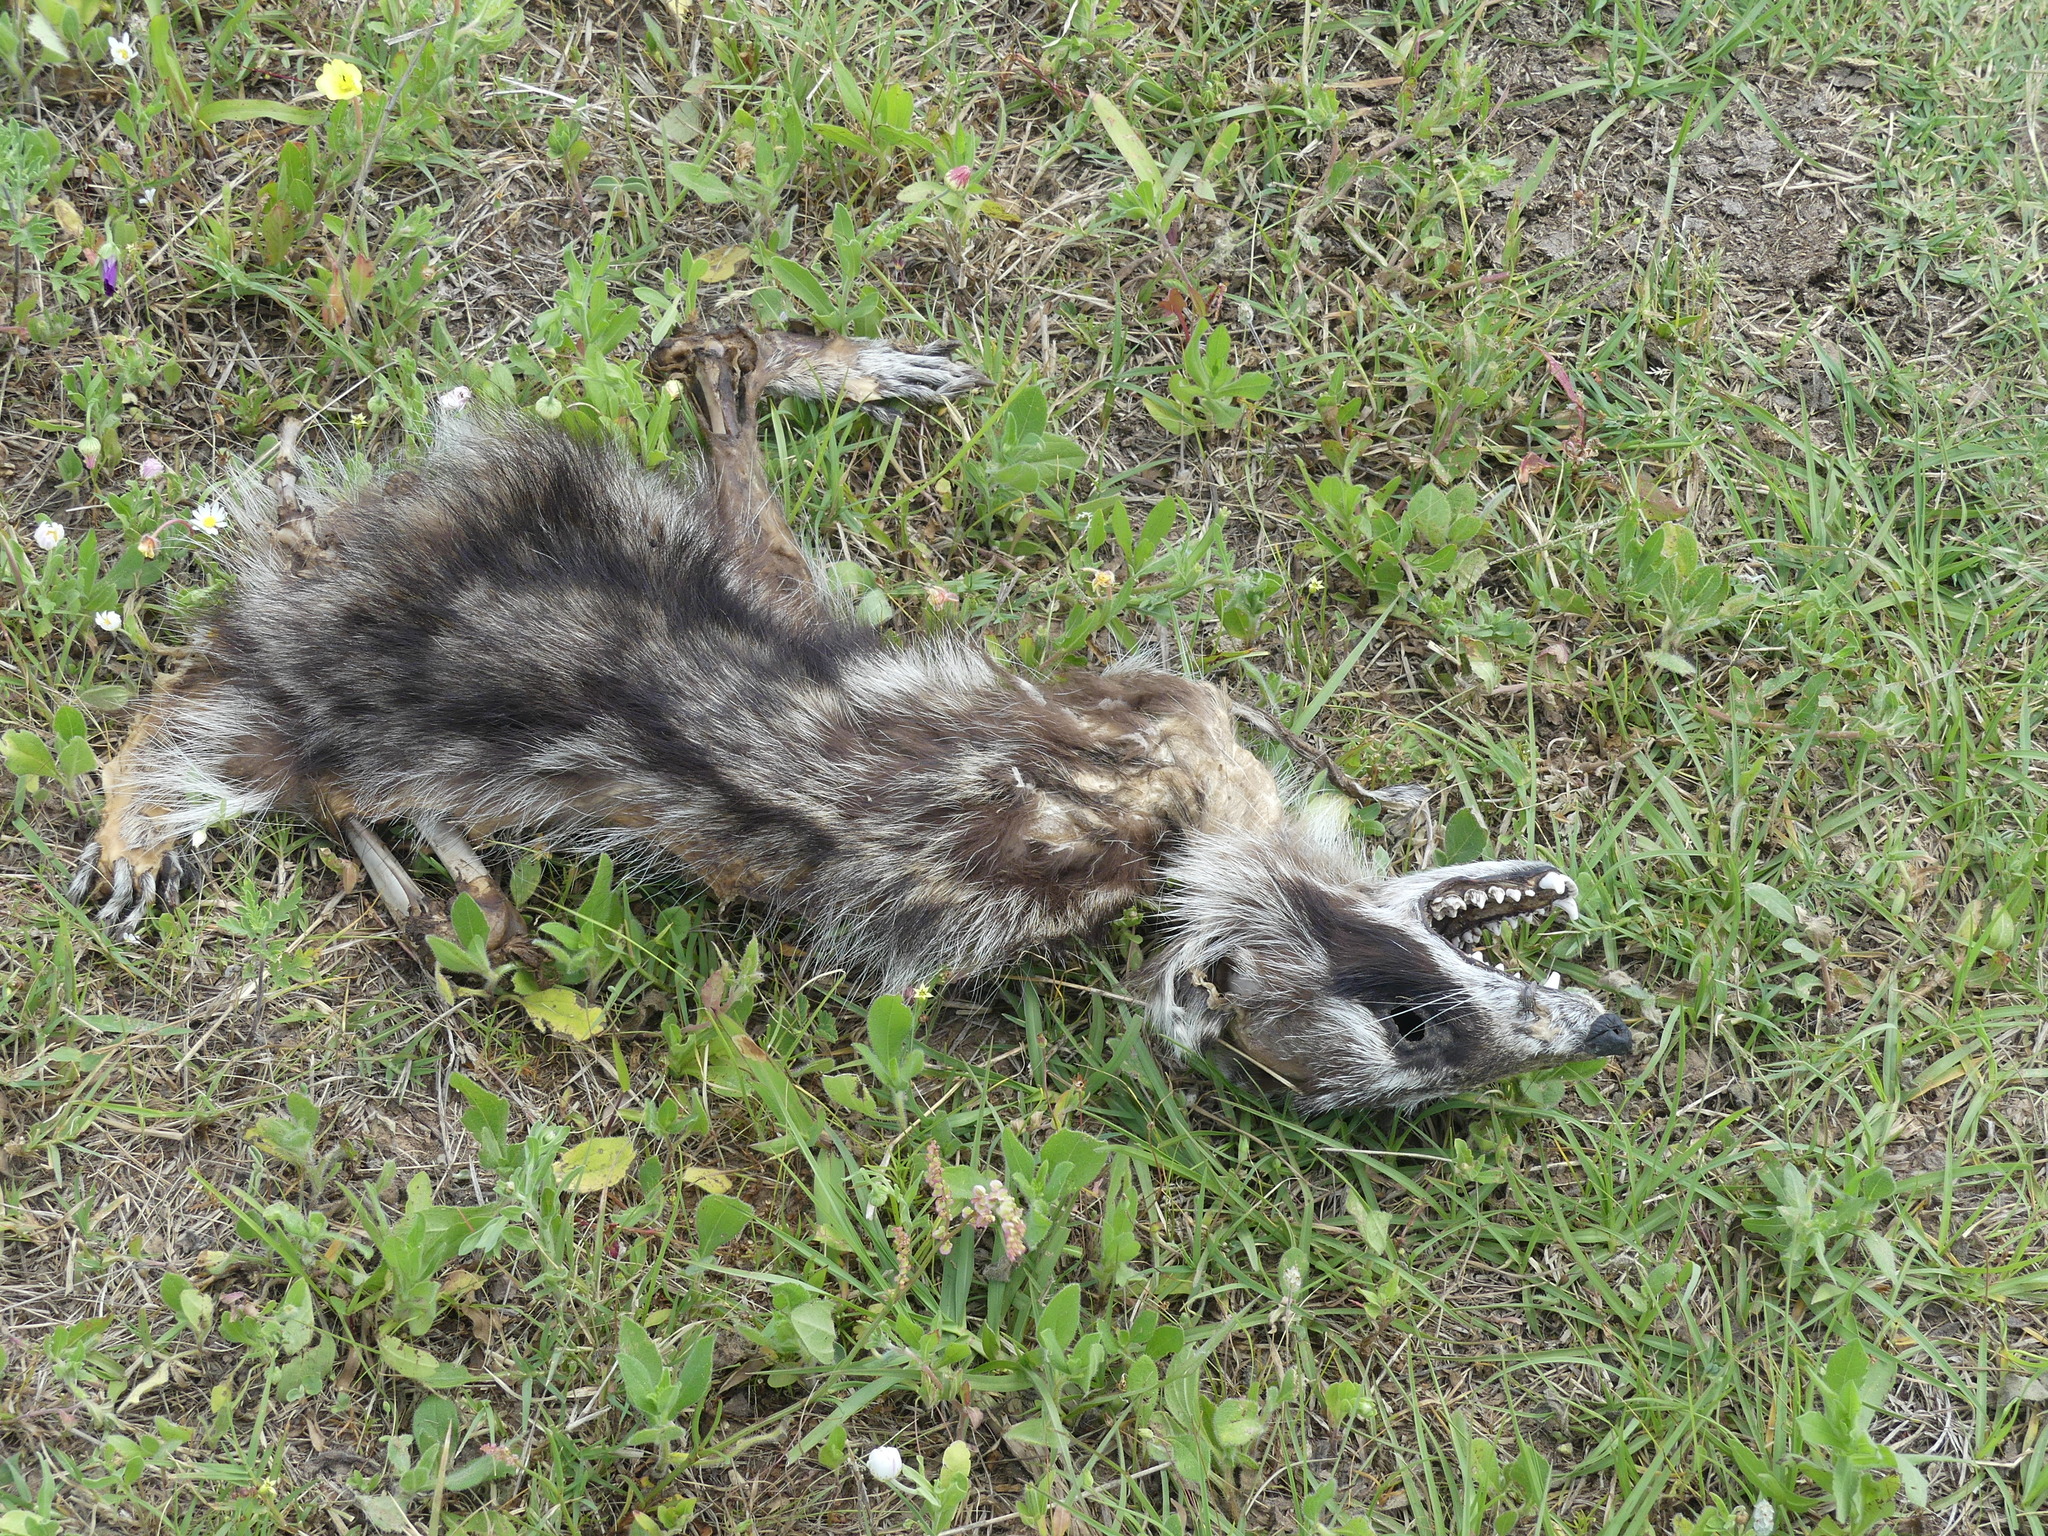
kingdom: Animalia
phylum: Chordata
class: Mammalia
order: Carnivora
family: Procyonidae
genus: Procyon
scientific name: Procyon lotor
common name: Raccoon
